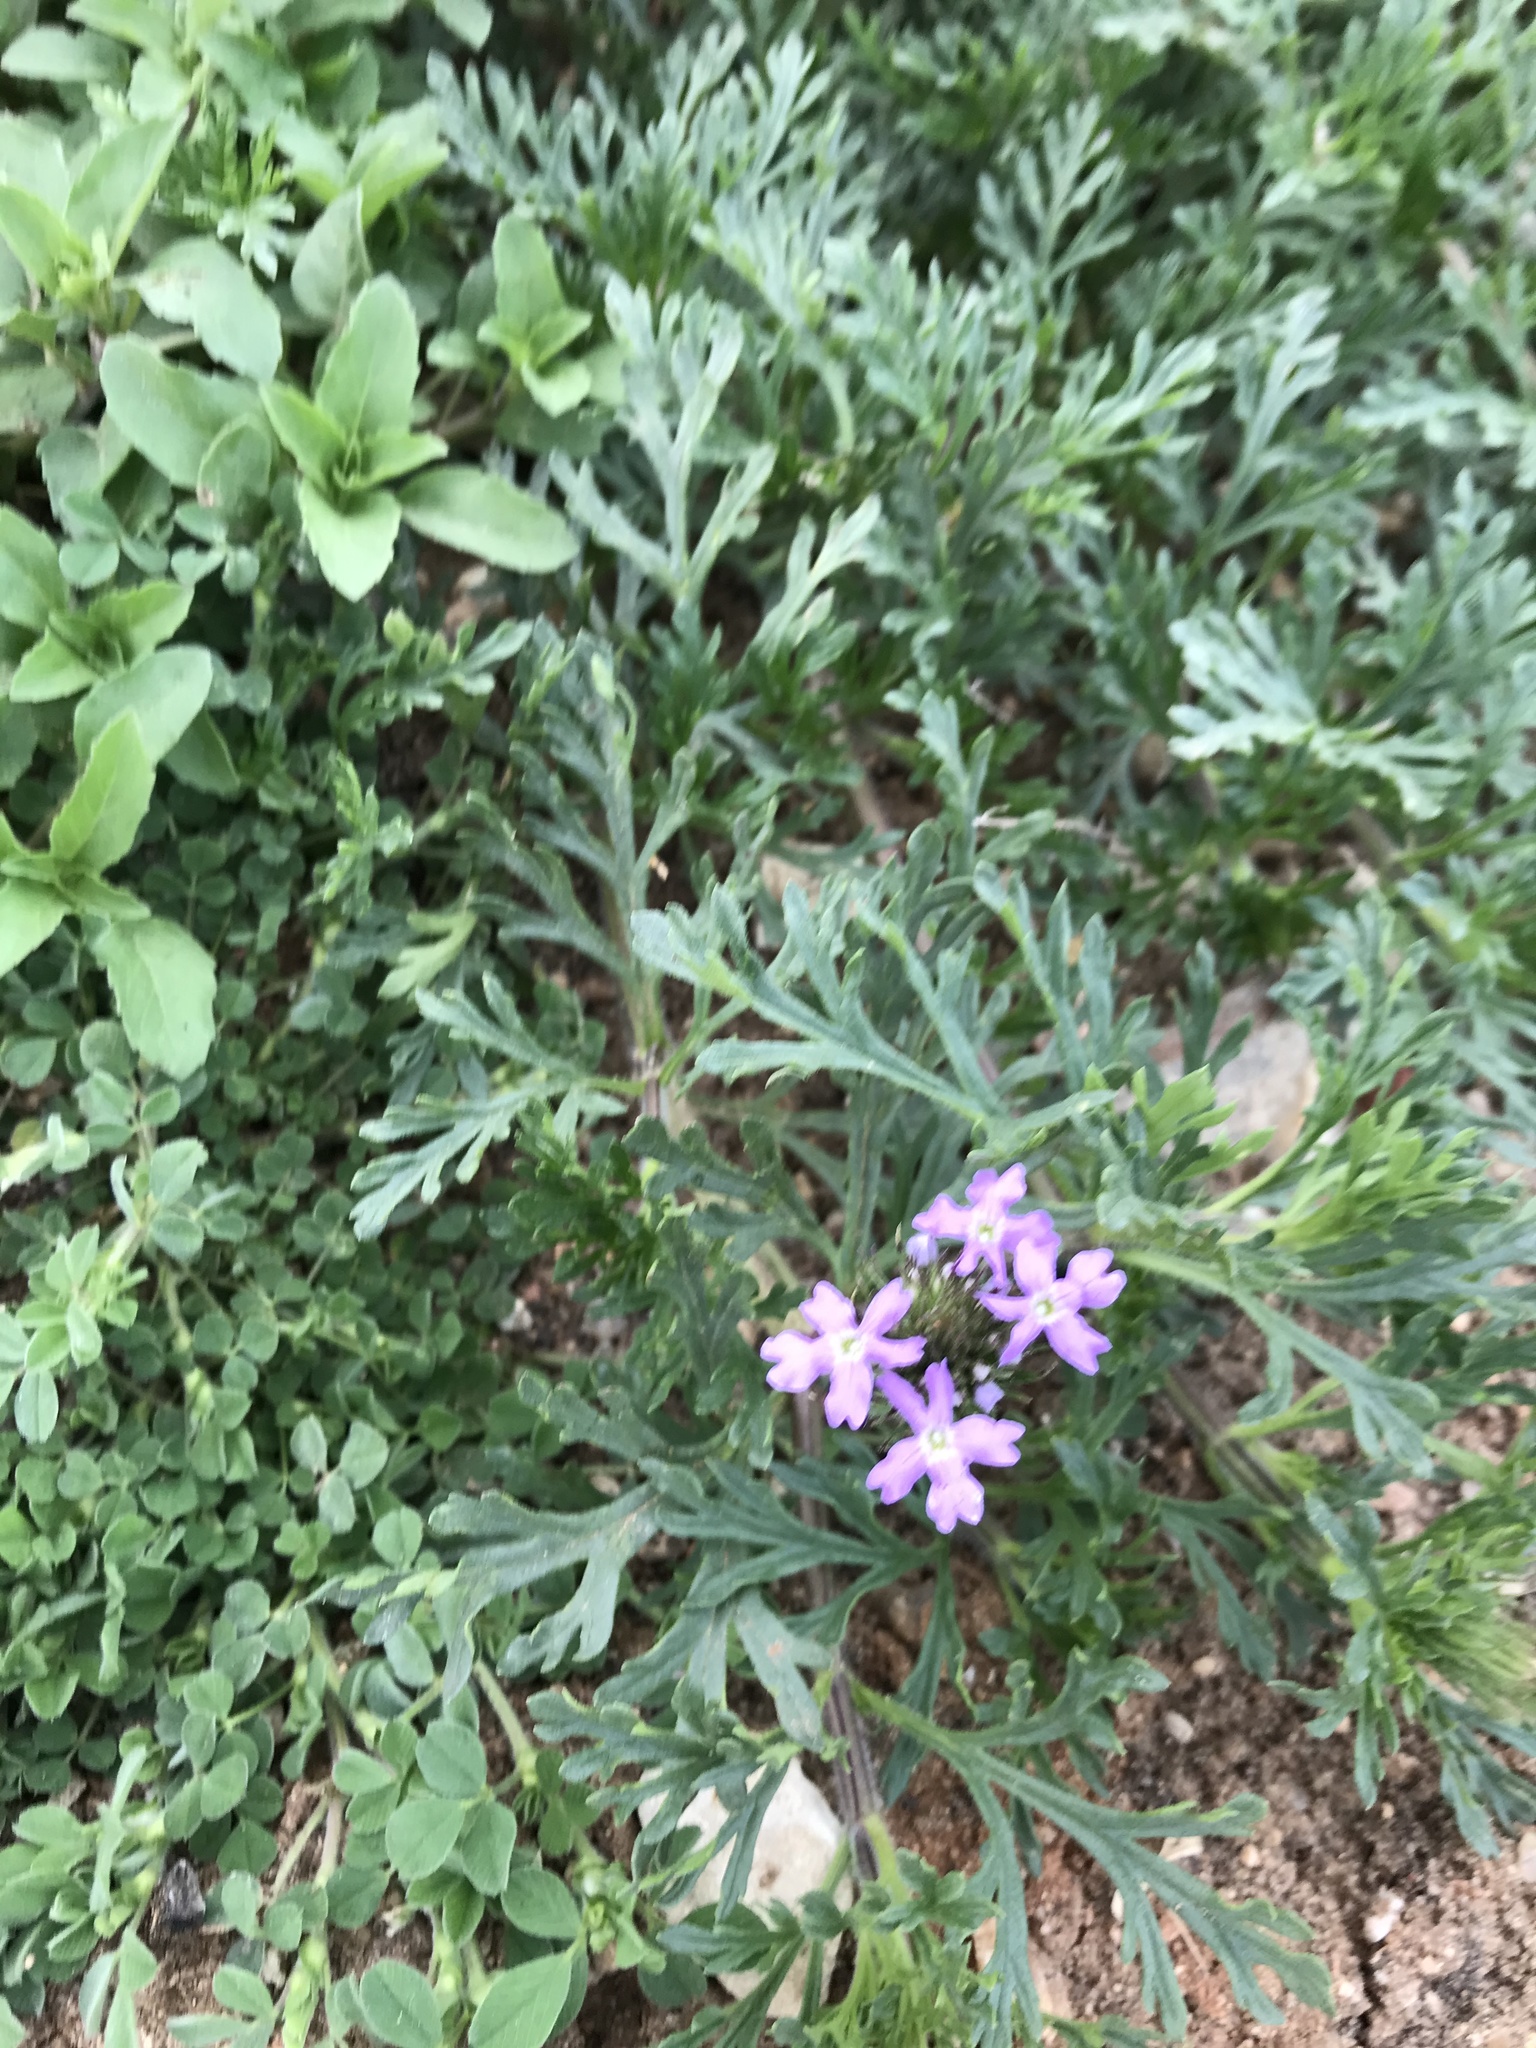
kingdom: Plantae
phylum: Tracheophyta
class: Magnoliopsida
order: Lamiales
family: Verbenaceae
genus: Verbena
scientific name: Verbena bipinnatifida
